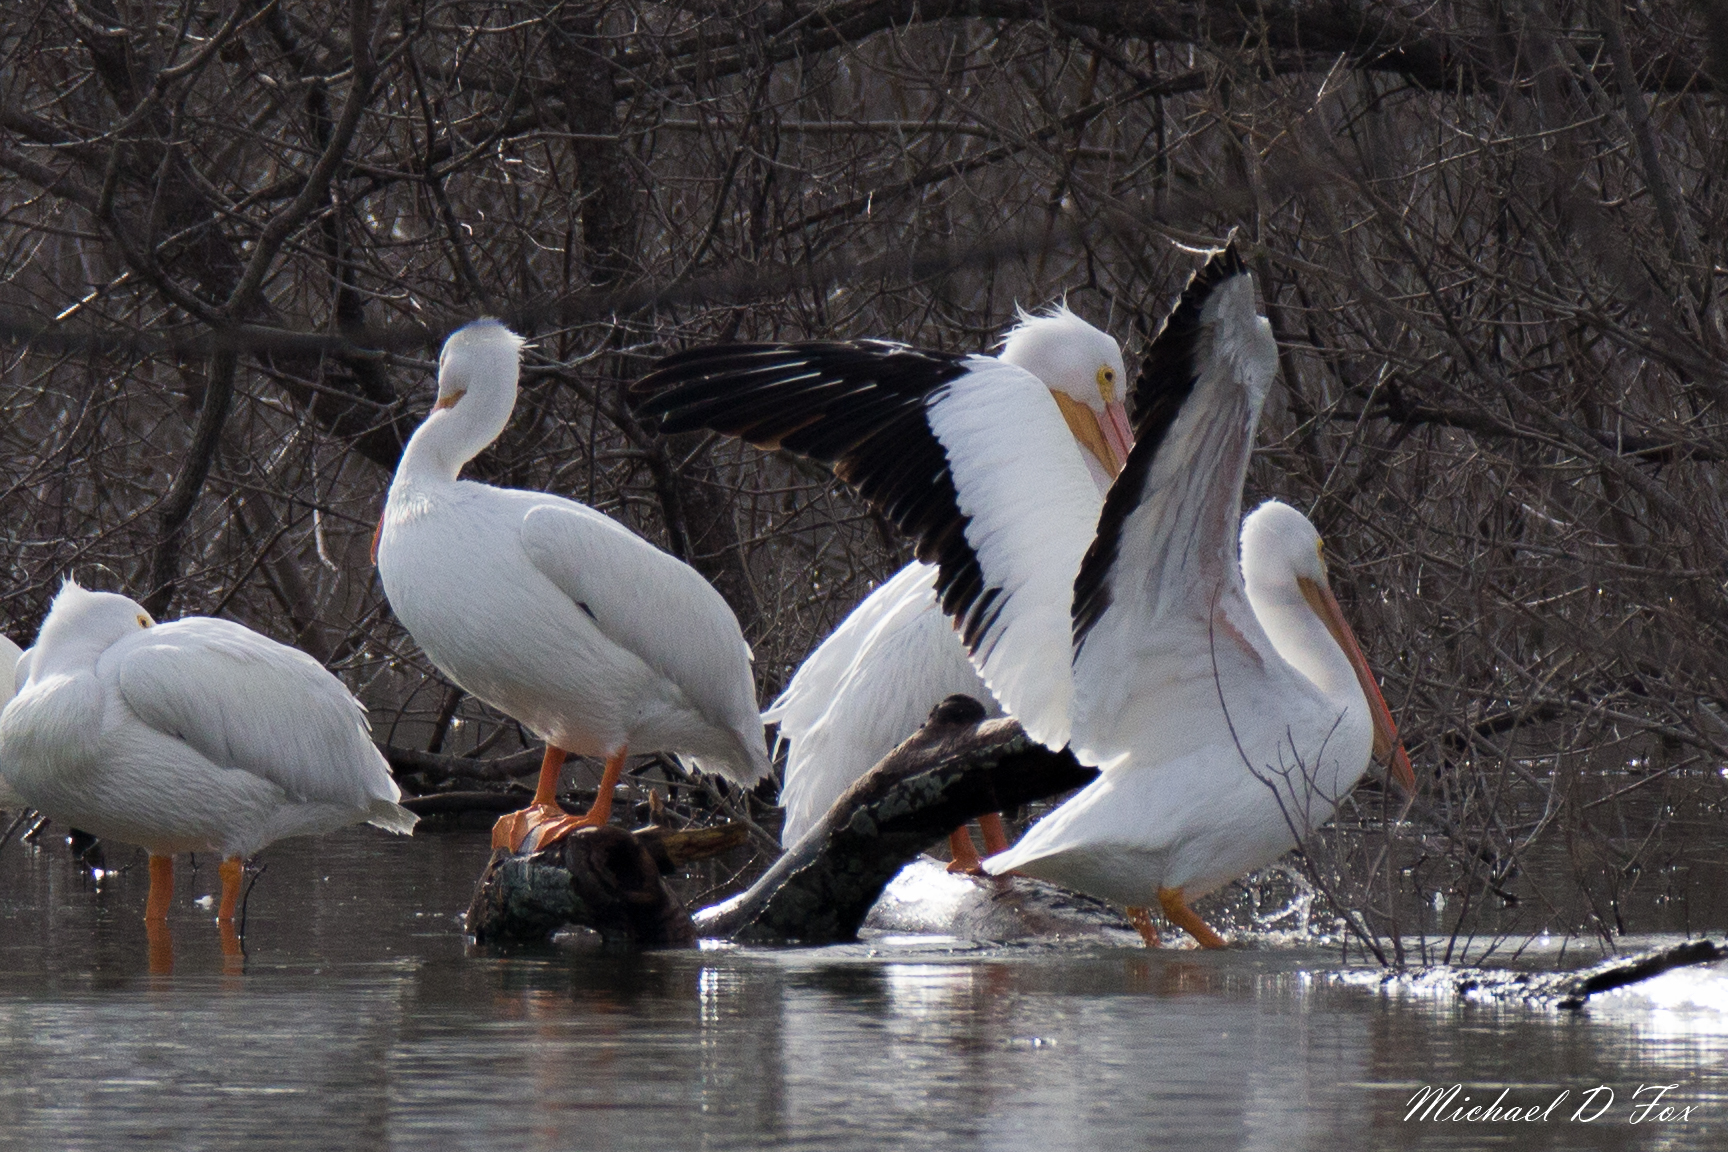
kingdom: Animalia
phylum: Chordata
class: Aves
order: Pelecaniformes
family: Pelecanidae
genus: Pelecanus
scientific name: Pelecanus erythrorhynchos
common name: American white pelican
